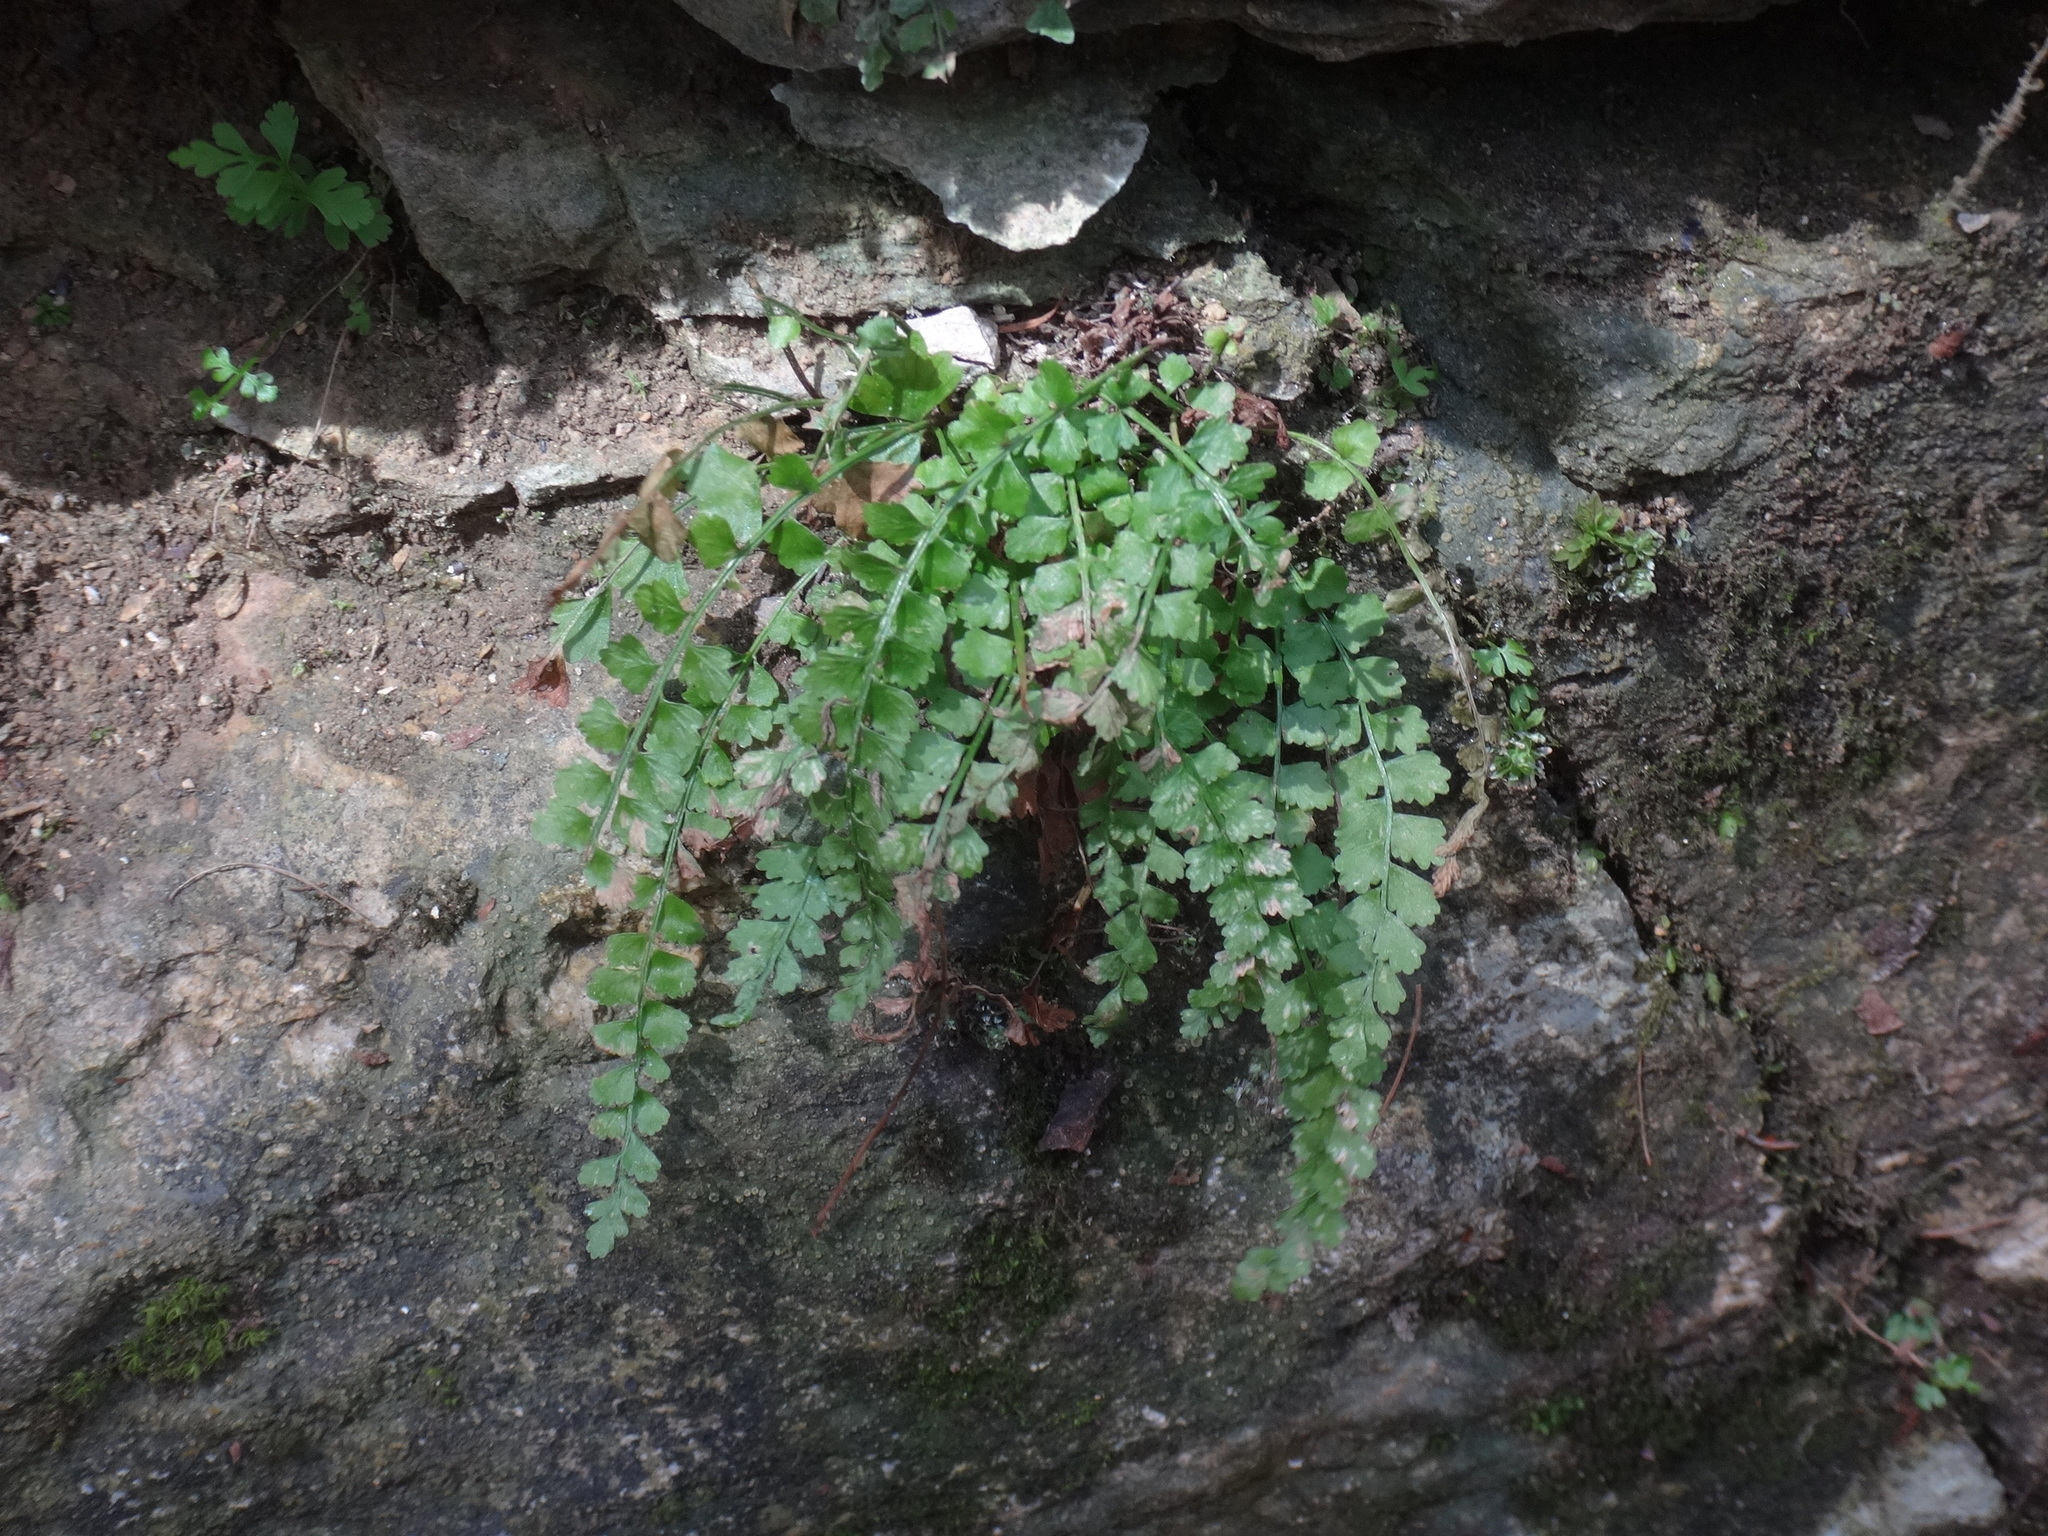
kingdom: Plantae
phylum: Tracheophyta
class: Polypodiopsida
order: Polypodiales
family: Aspleniaceae
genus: Asplenium
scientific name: Asplenium viride
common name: Green spleenwort
